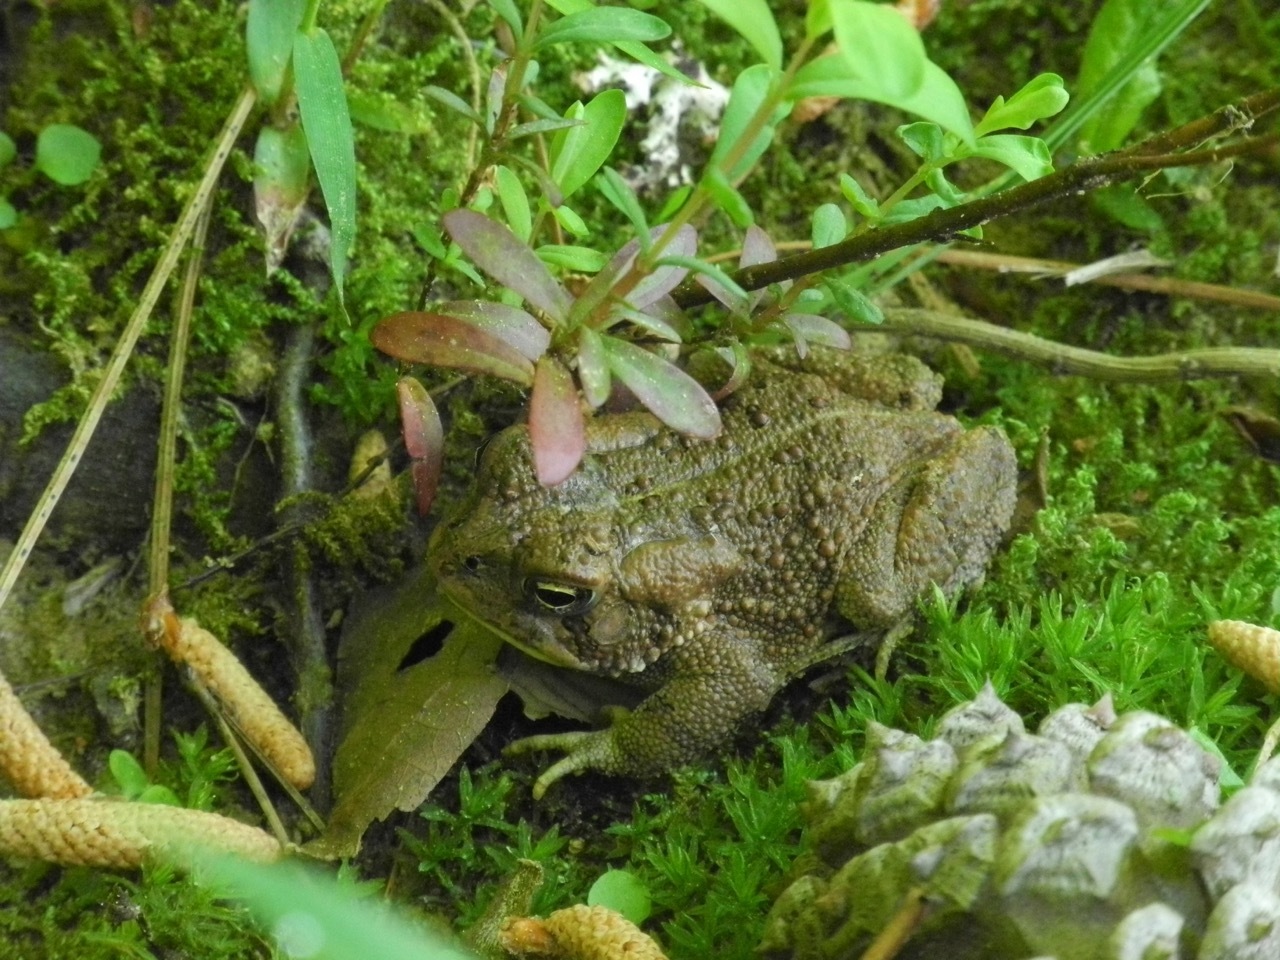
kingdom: Animalia
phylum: Chordata
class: Amphibia
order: Anura
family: Bufonidae
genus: Anaxyrus
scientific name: Anaxyrus americanus
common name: American toad
